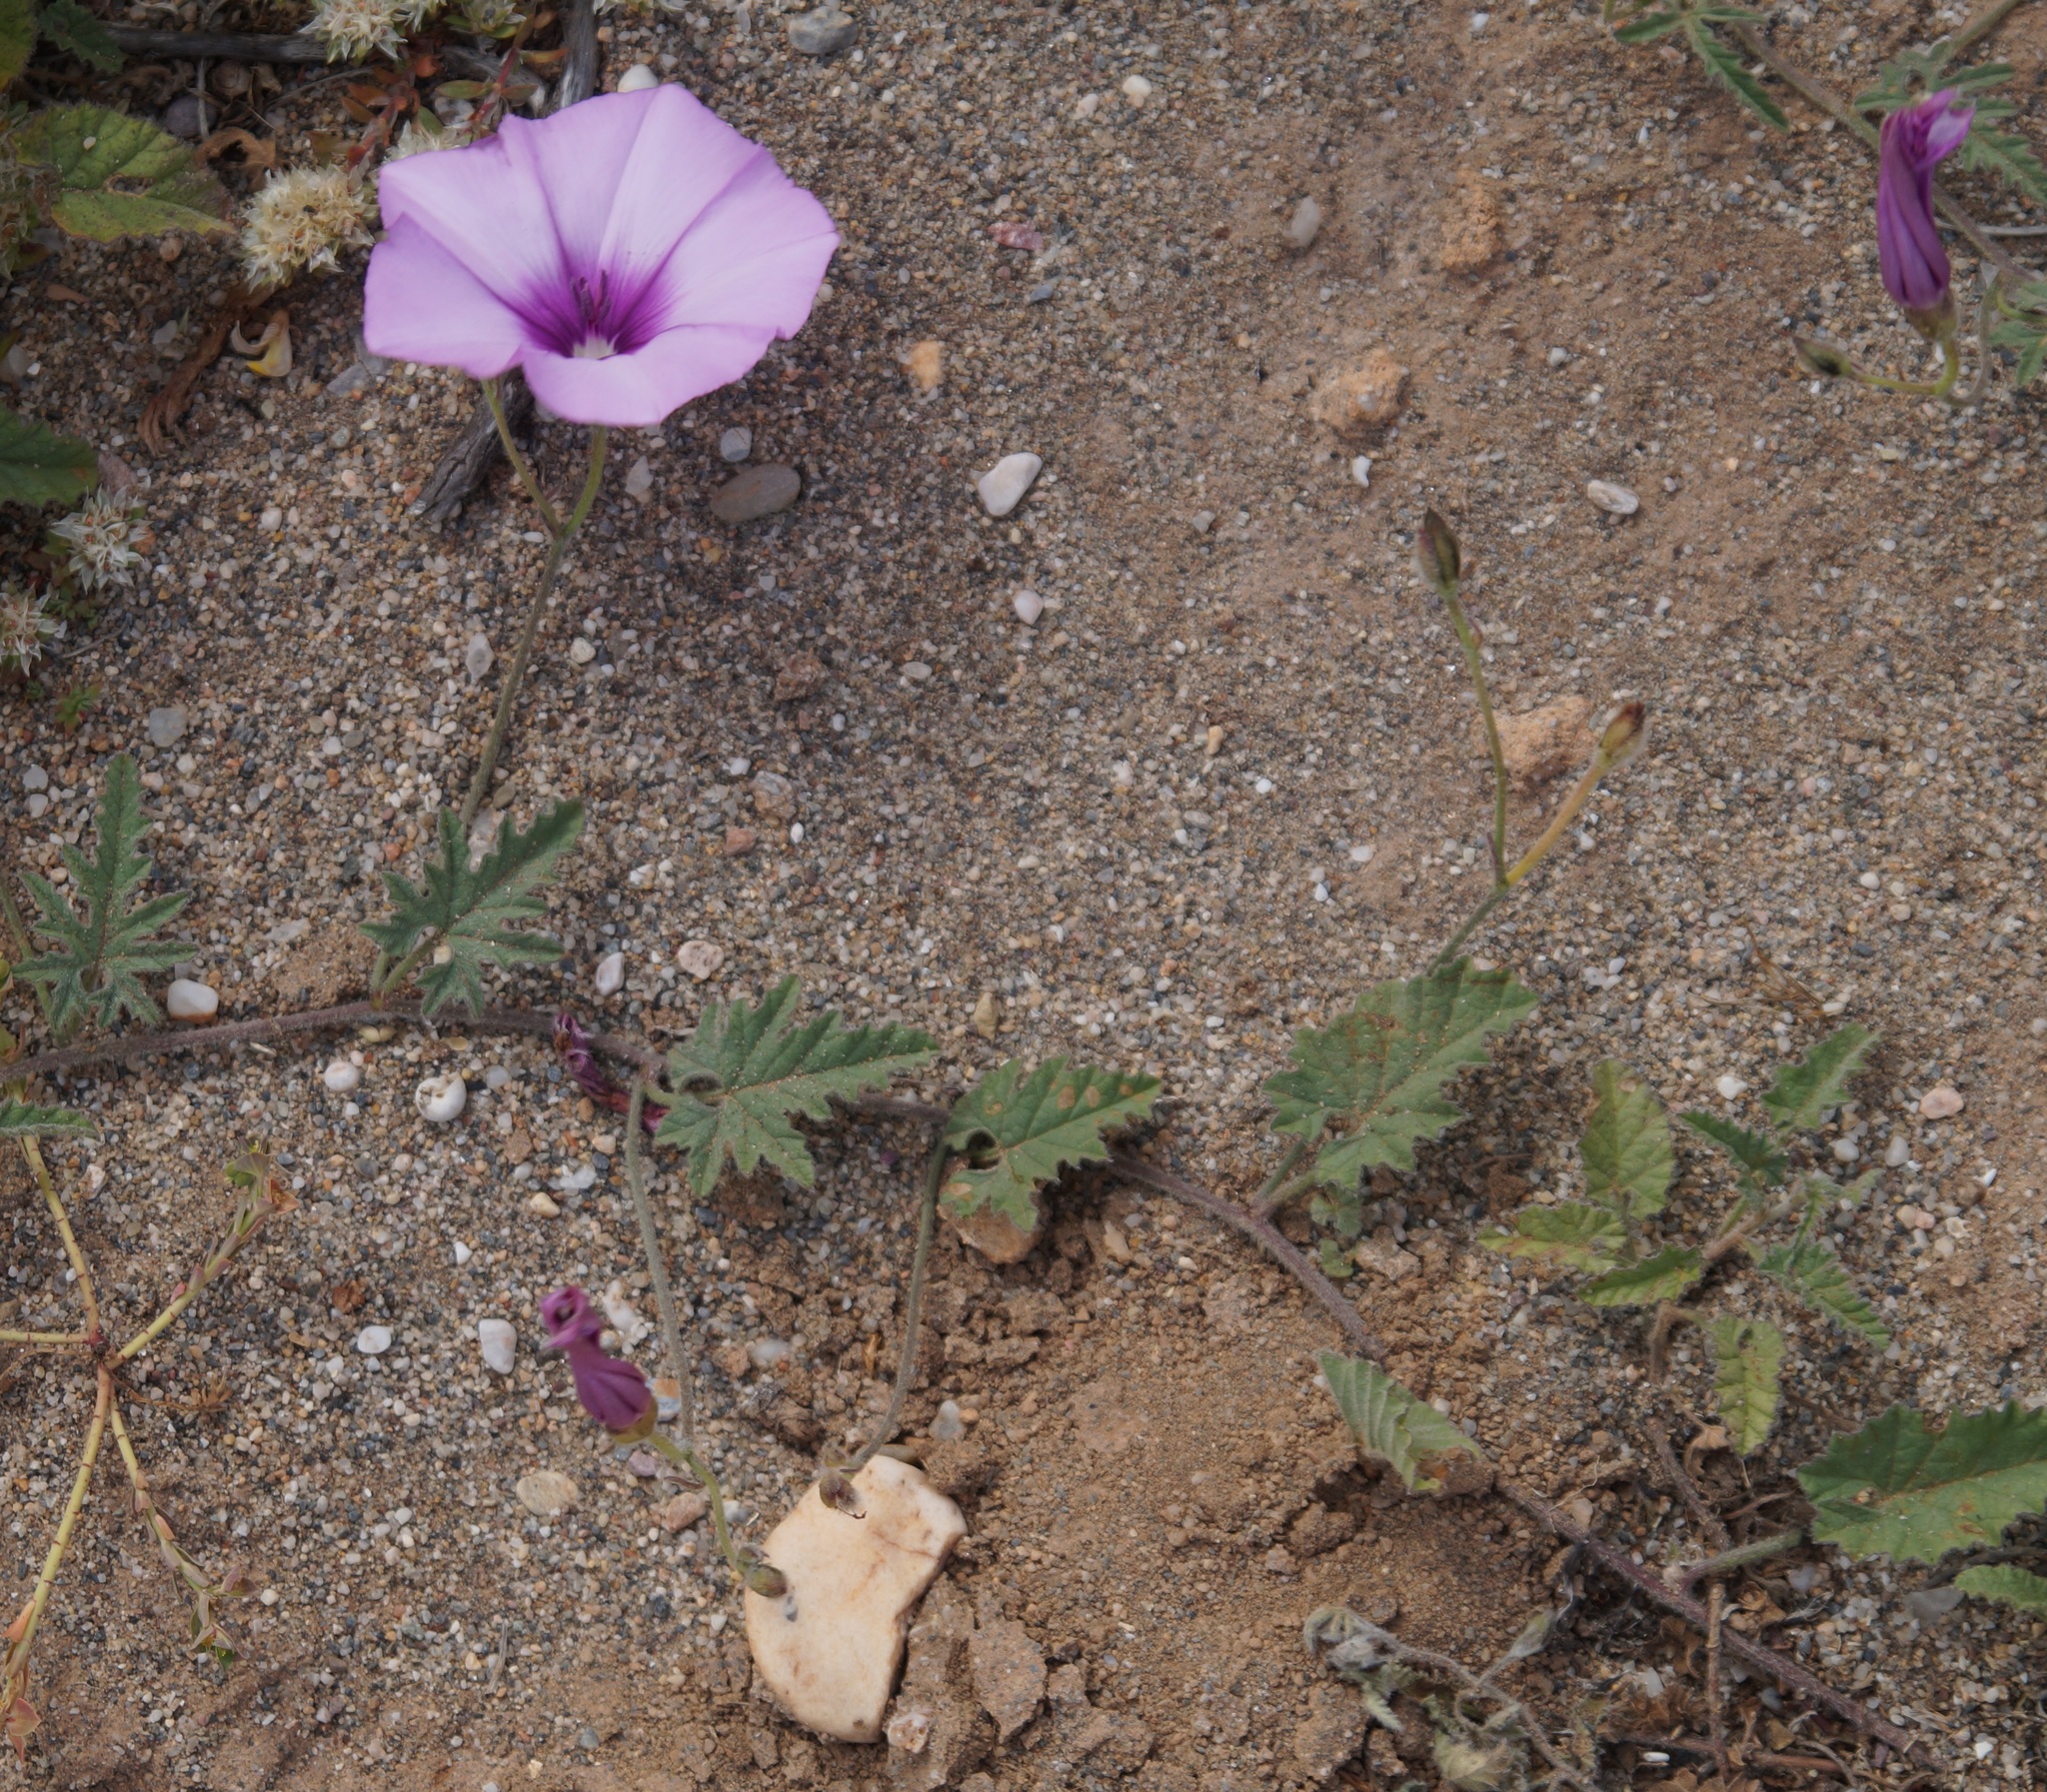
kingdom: Plantae
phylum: Tracheophyta
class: Magnoliopsida
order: Solanales
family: Convolvulaceae
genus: Convolvulus
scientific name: Convolvulus althaeoides
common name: Mallow bindweed
